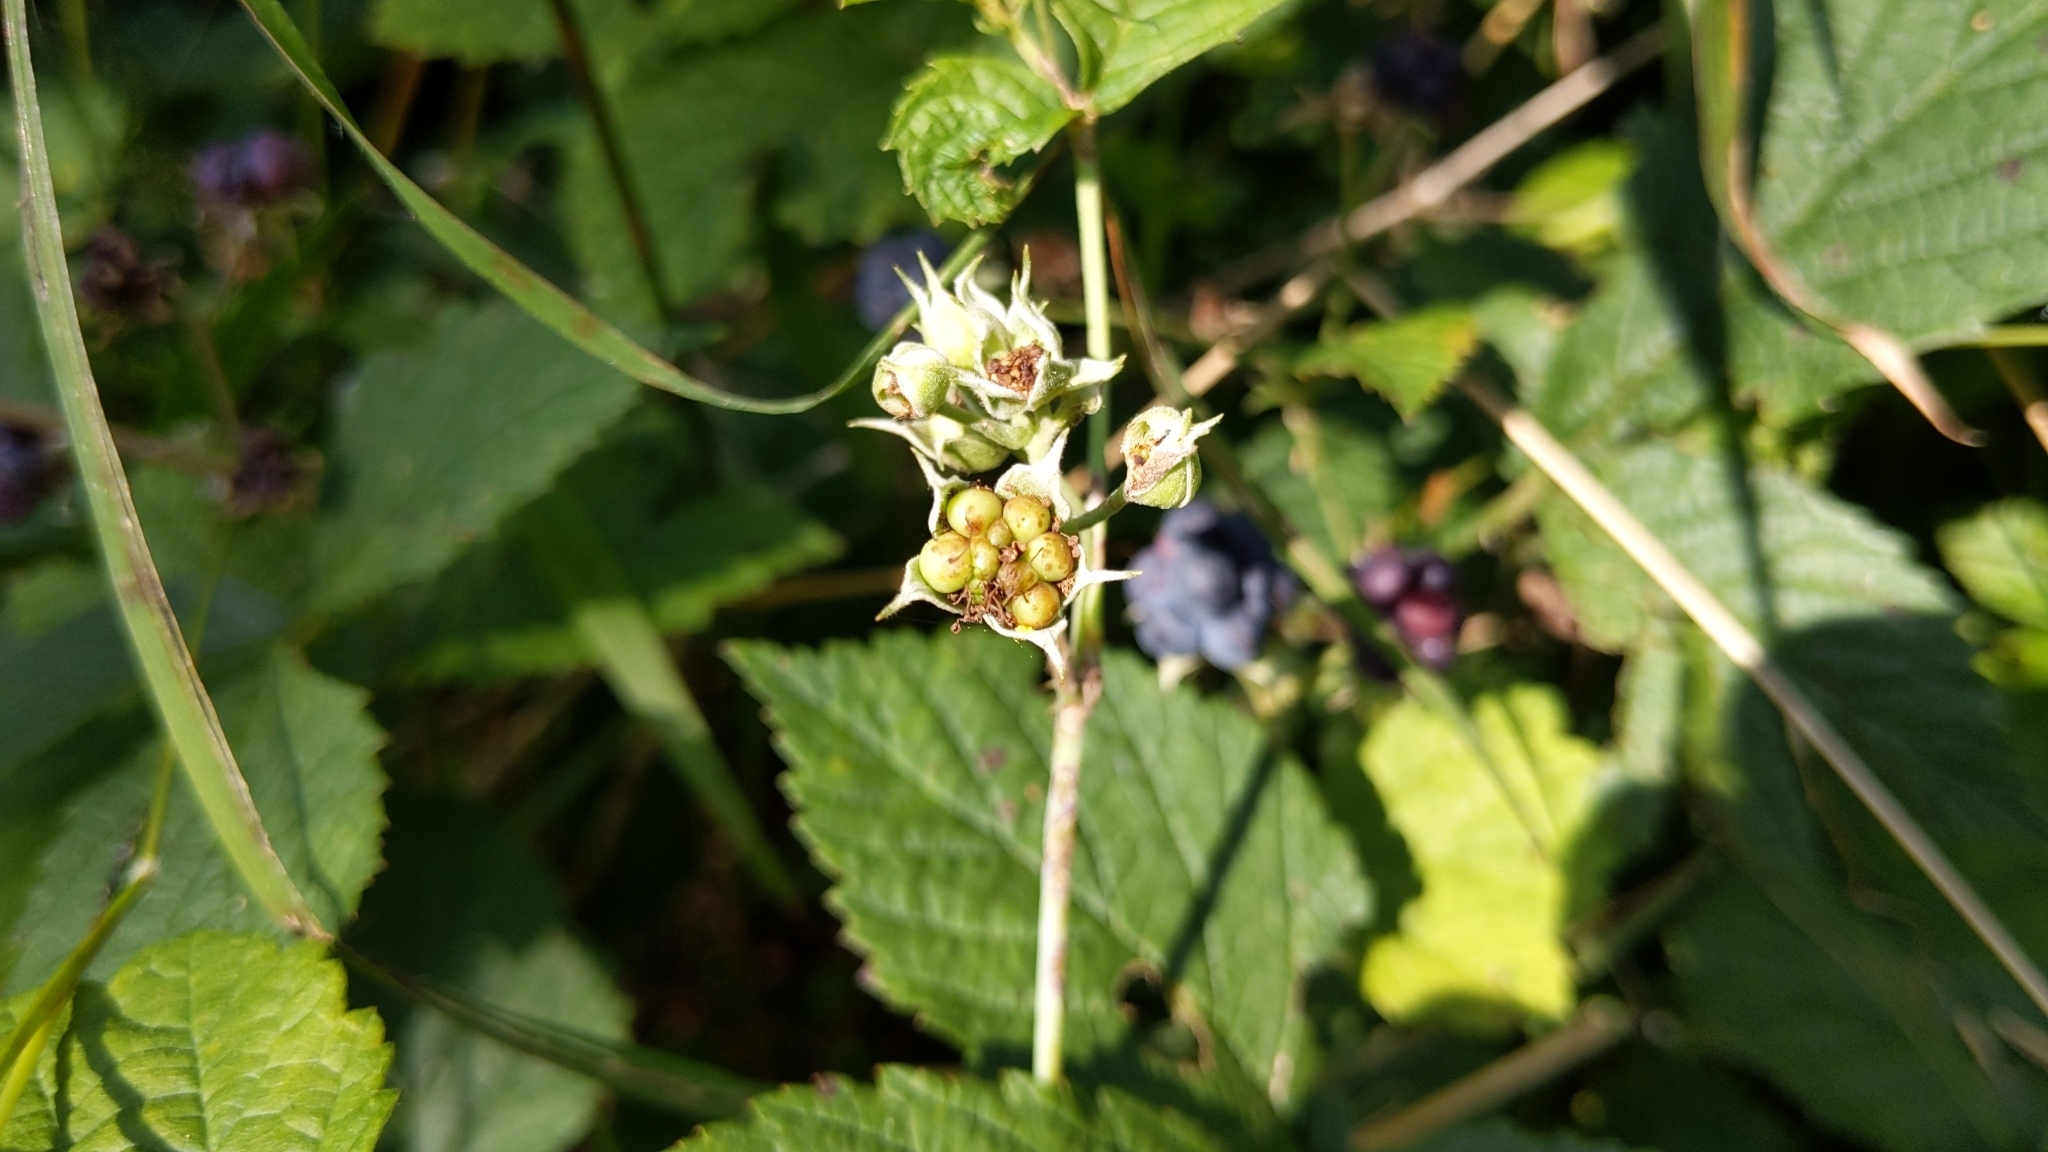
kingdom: Plantae
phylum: Tracheophyta
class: Magnoliopsida
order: Rosales
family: Rosaceae
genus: Rubus
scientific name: Rubus caesius
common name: Dewberry
